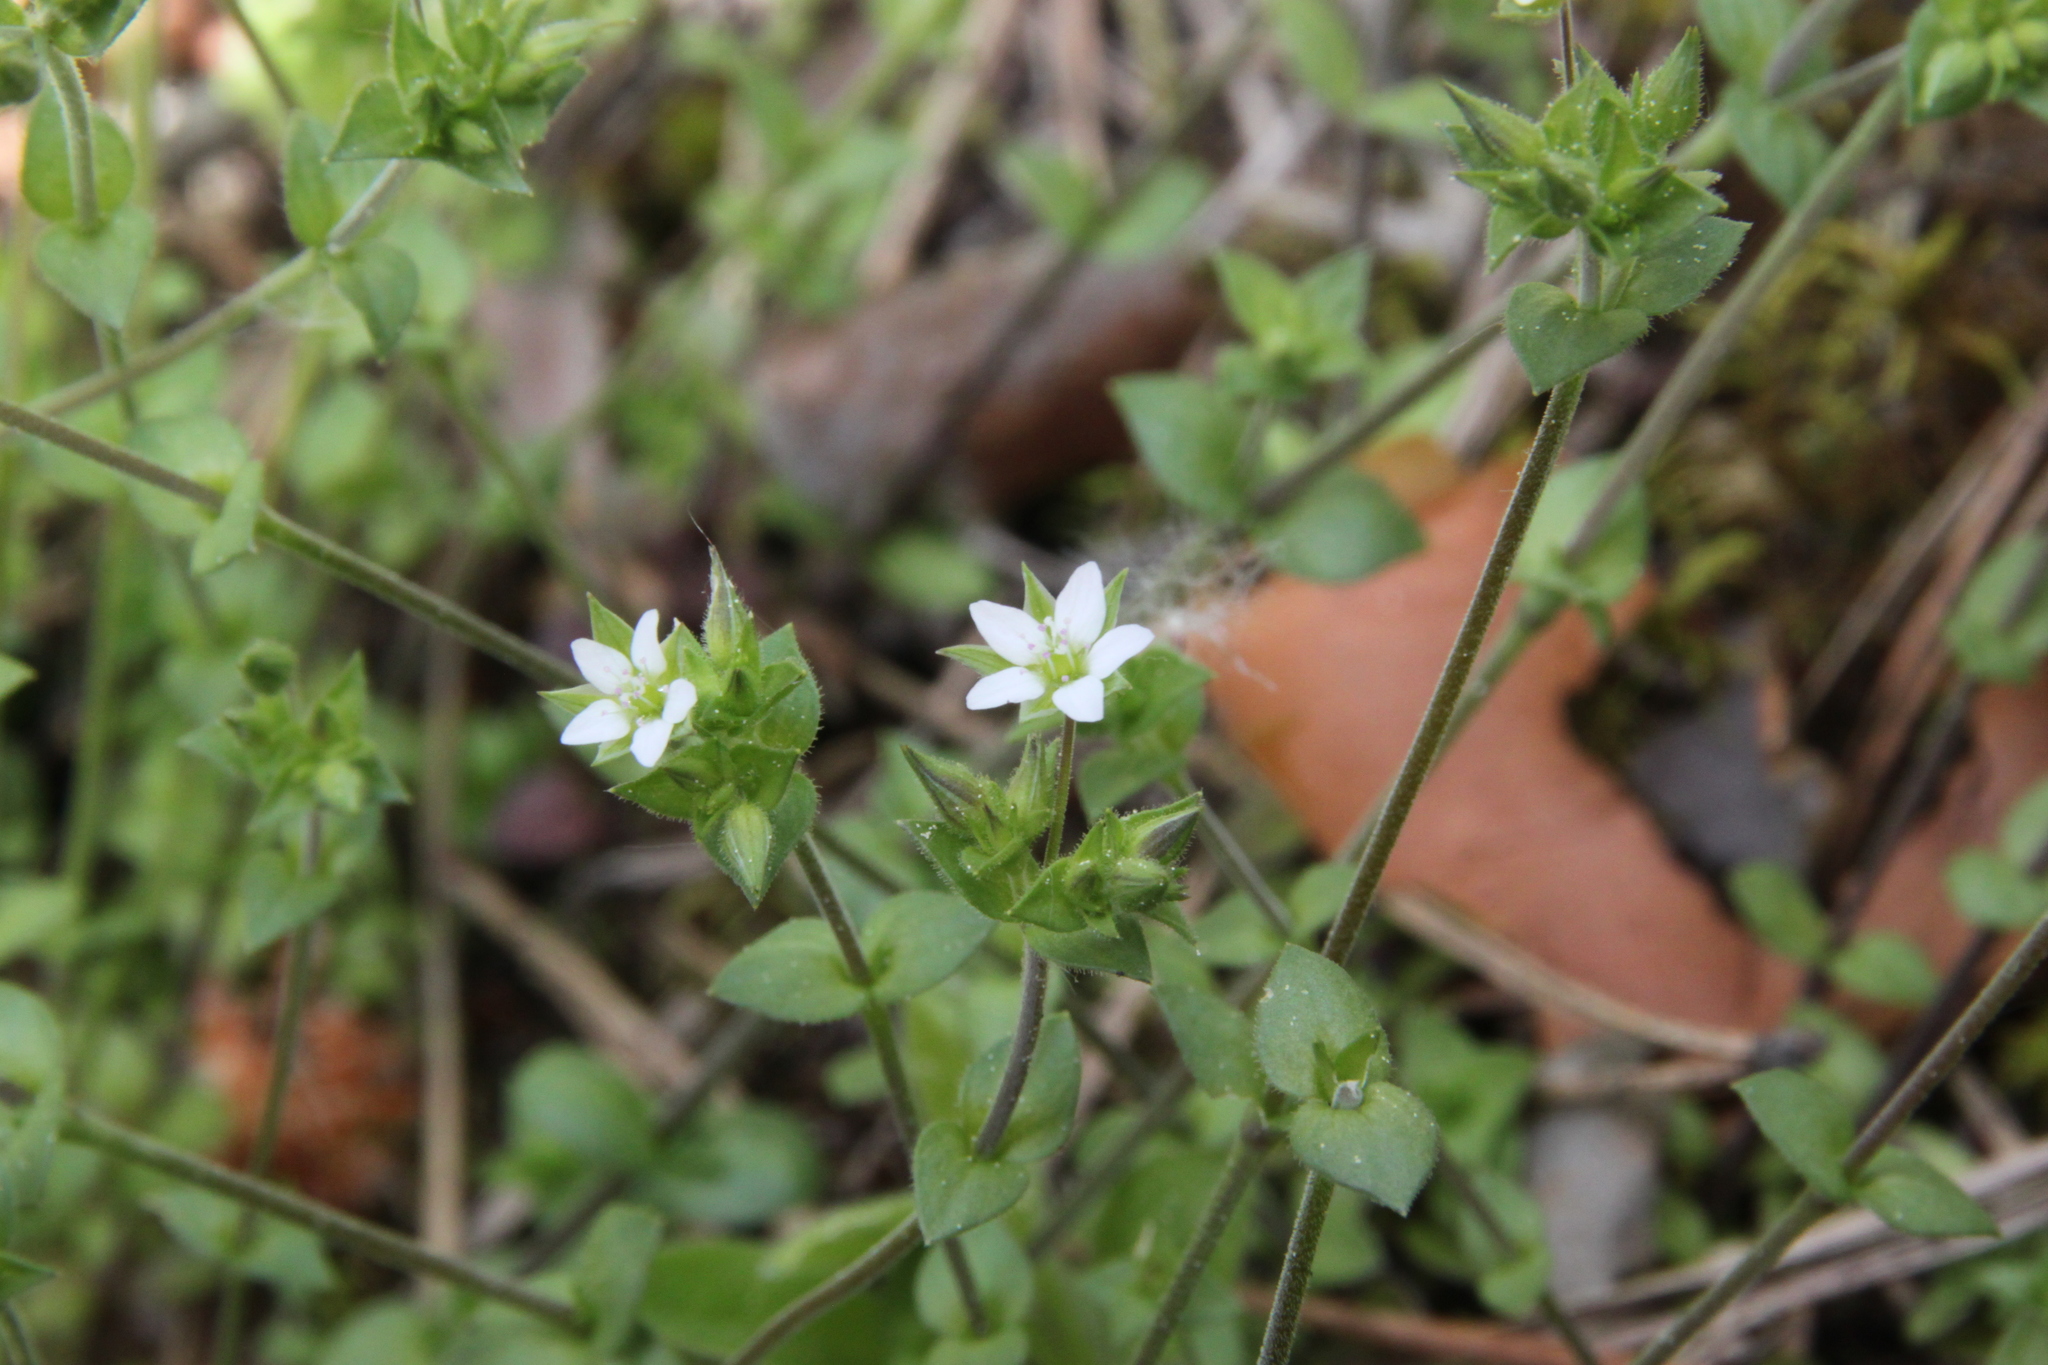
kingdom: Plantae
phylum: Tracheophyta
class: Magnoliopsida
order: Caryophyllales
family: Caryophyllaceae
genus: Arenaria
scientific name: Arenaria serpyllifolia
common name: Thyme-leaved sandwort
